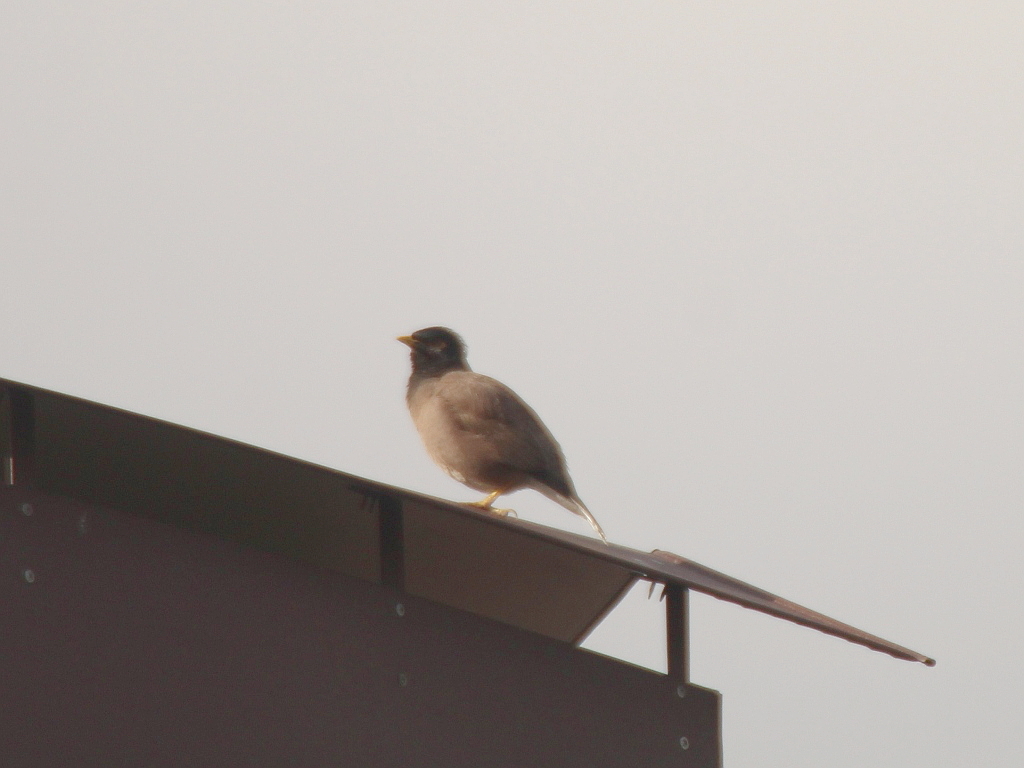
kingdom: Animalia
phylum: Chordata
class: Aves
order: Passeriformes
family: Sturnidae
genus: Acridotheres
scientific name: Acridotheres tristis
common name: Common myna
